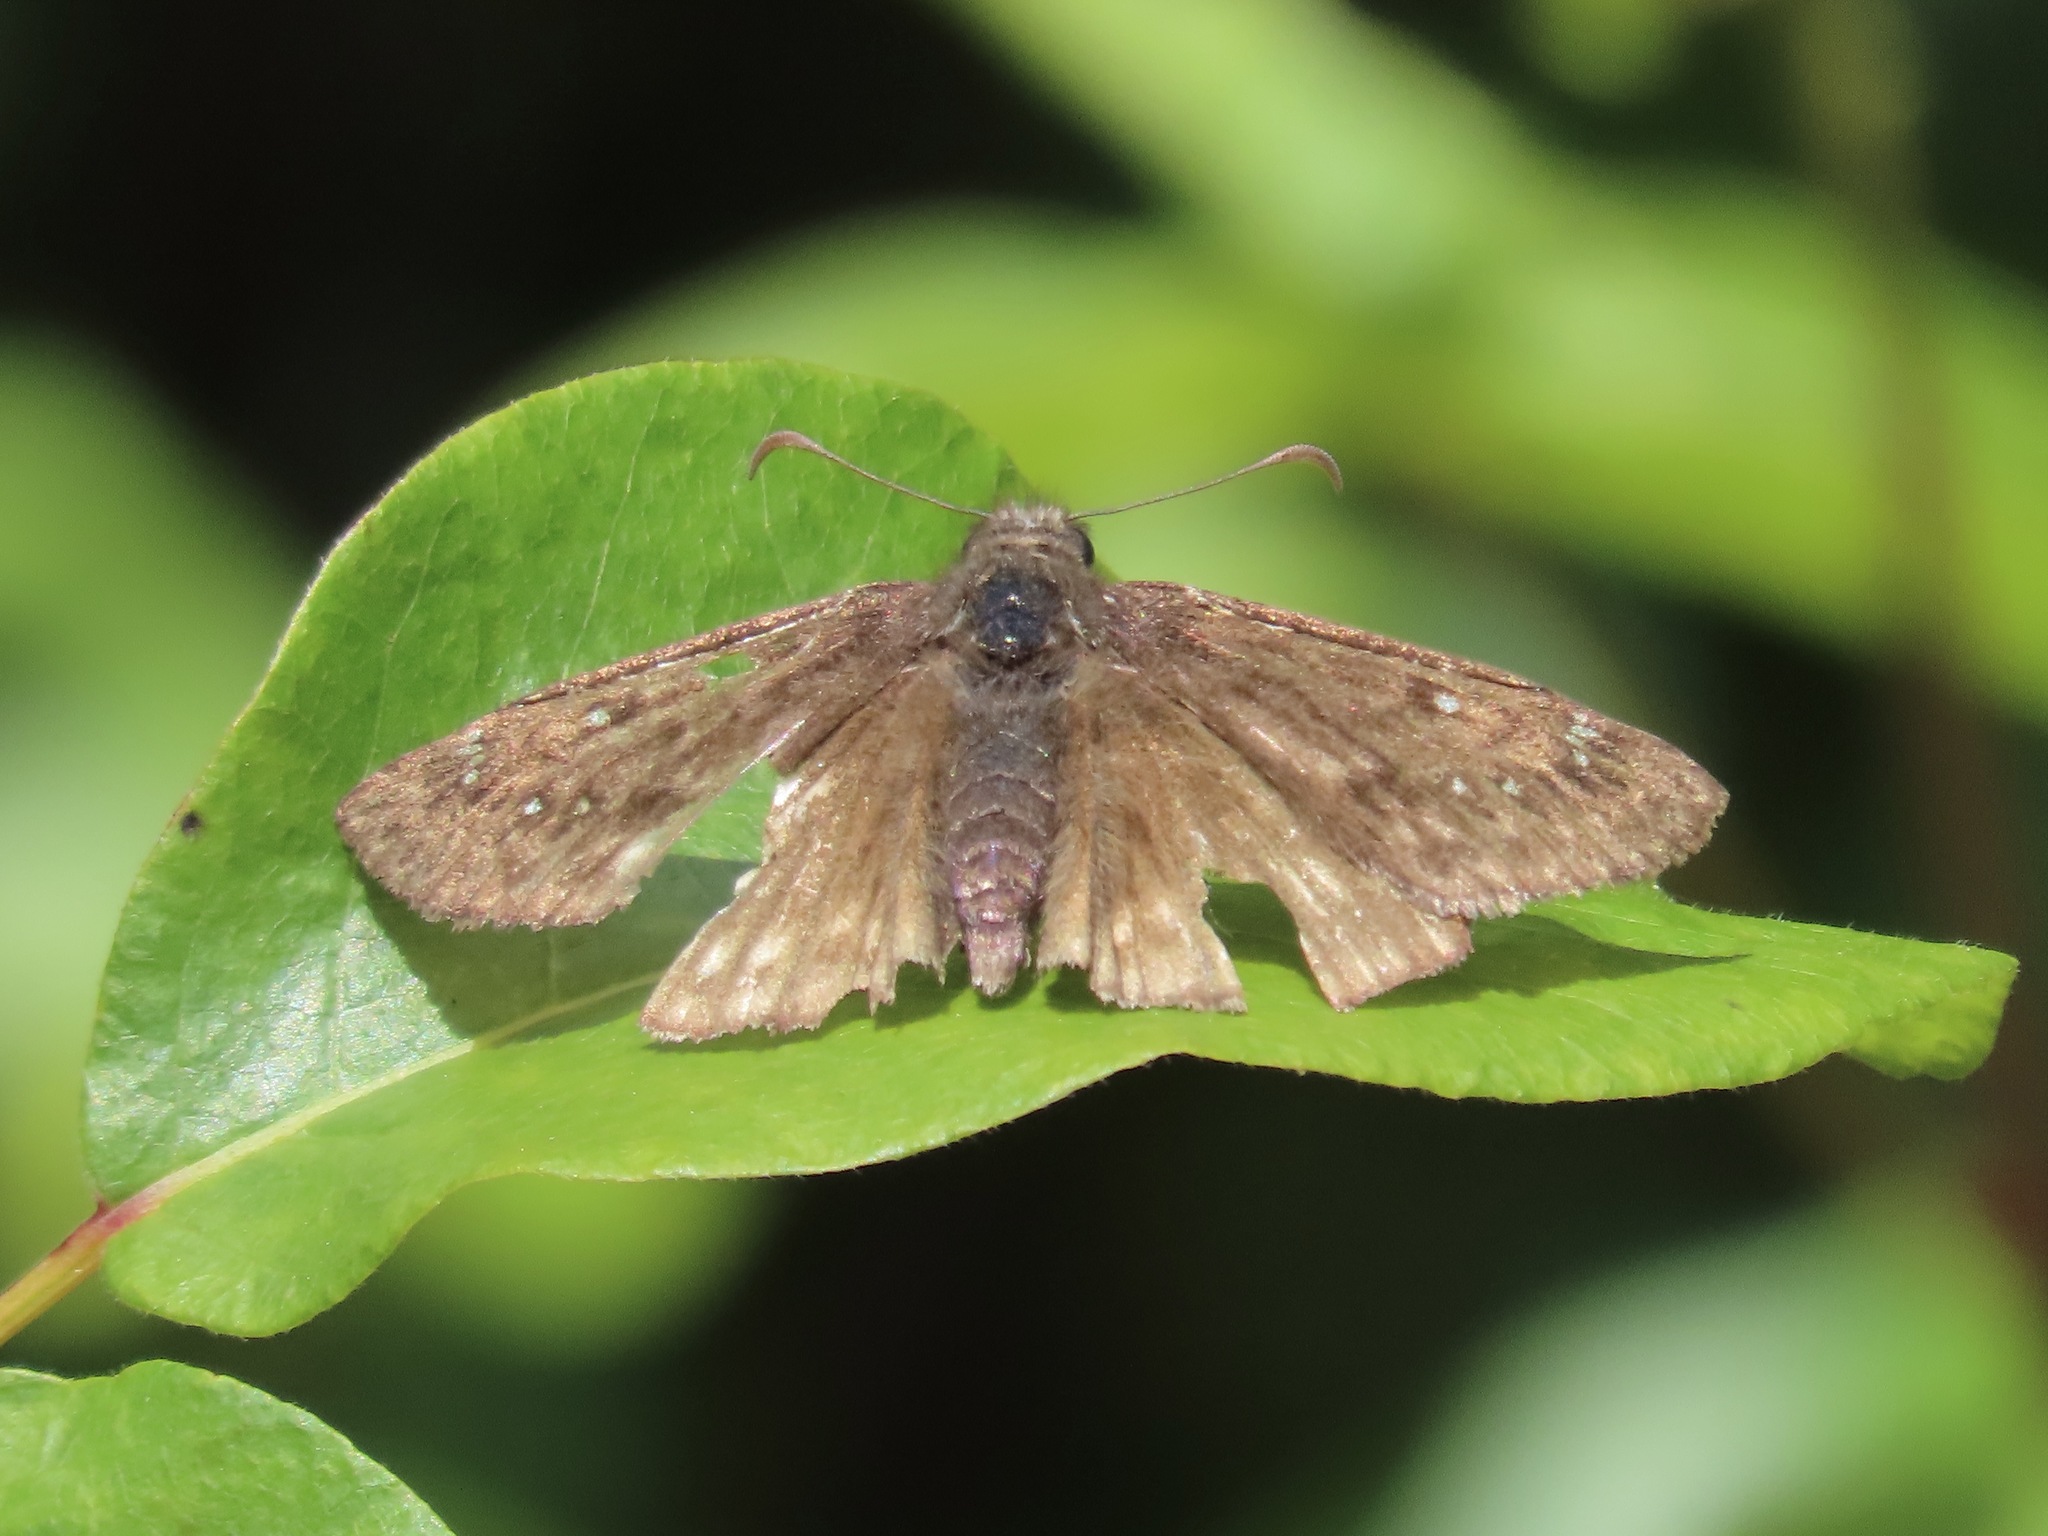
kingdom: Animalia
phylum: Arthropoda
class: Insecta
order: Lepidoptera
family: Hesperiidae
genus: Erynnis
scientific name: Erynnis propertius
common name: Propertius duskywing
